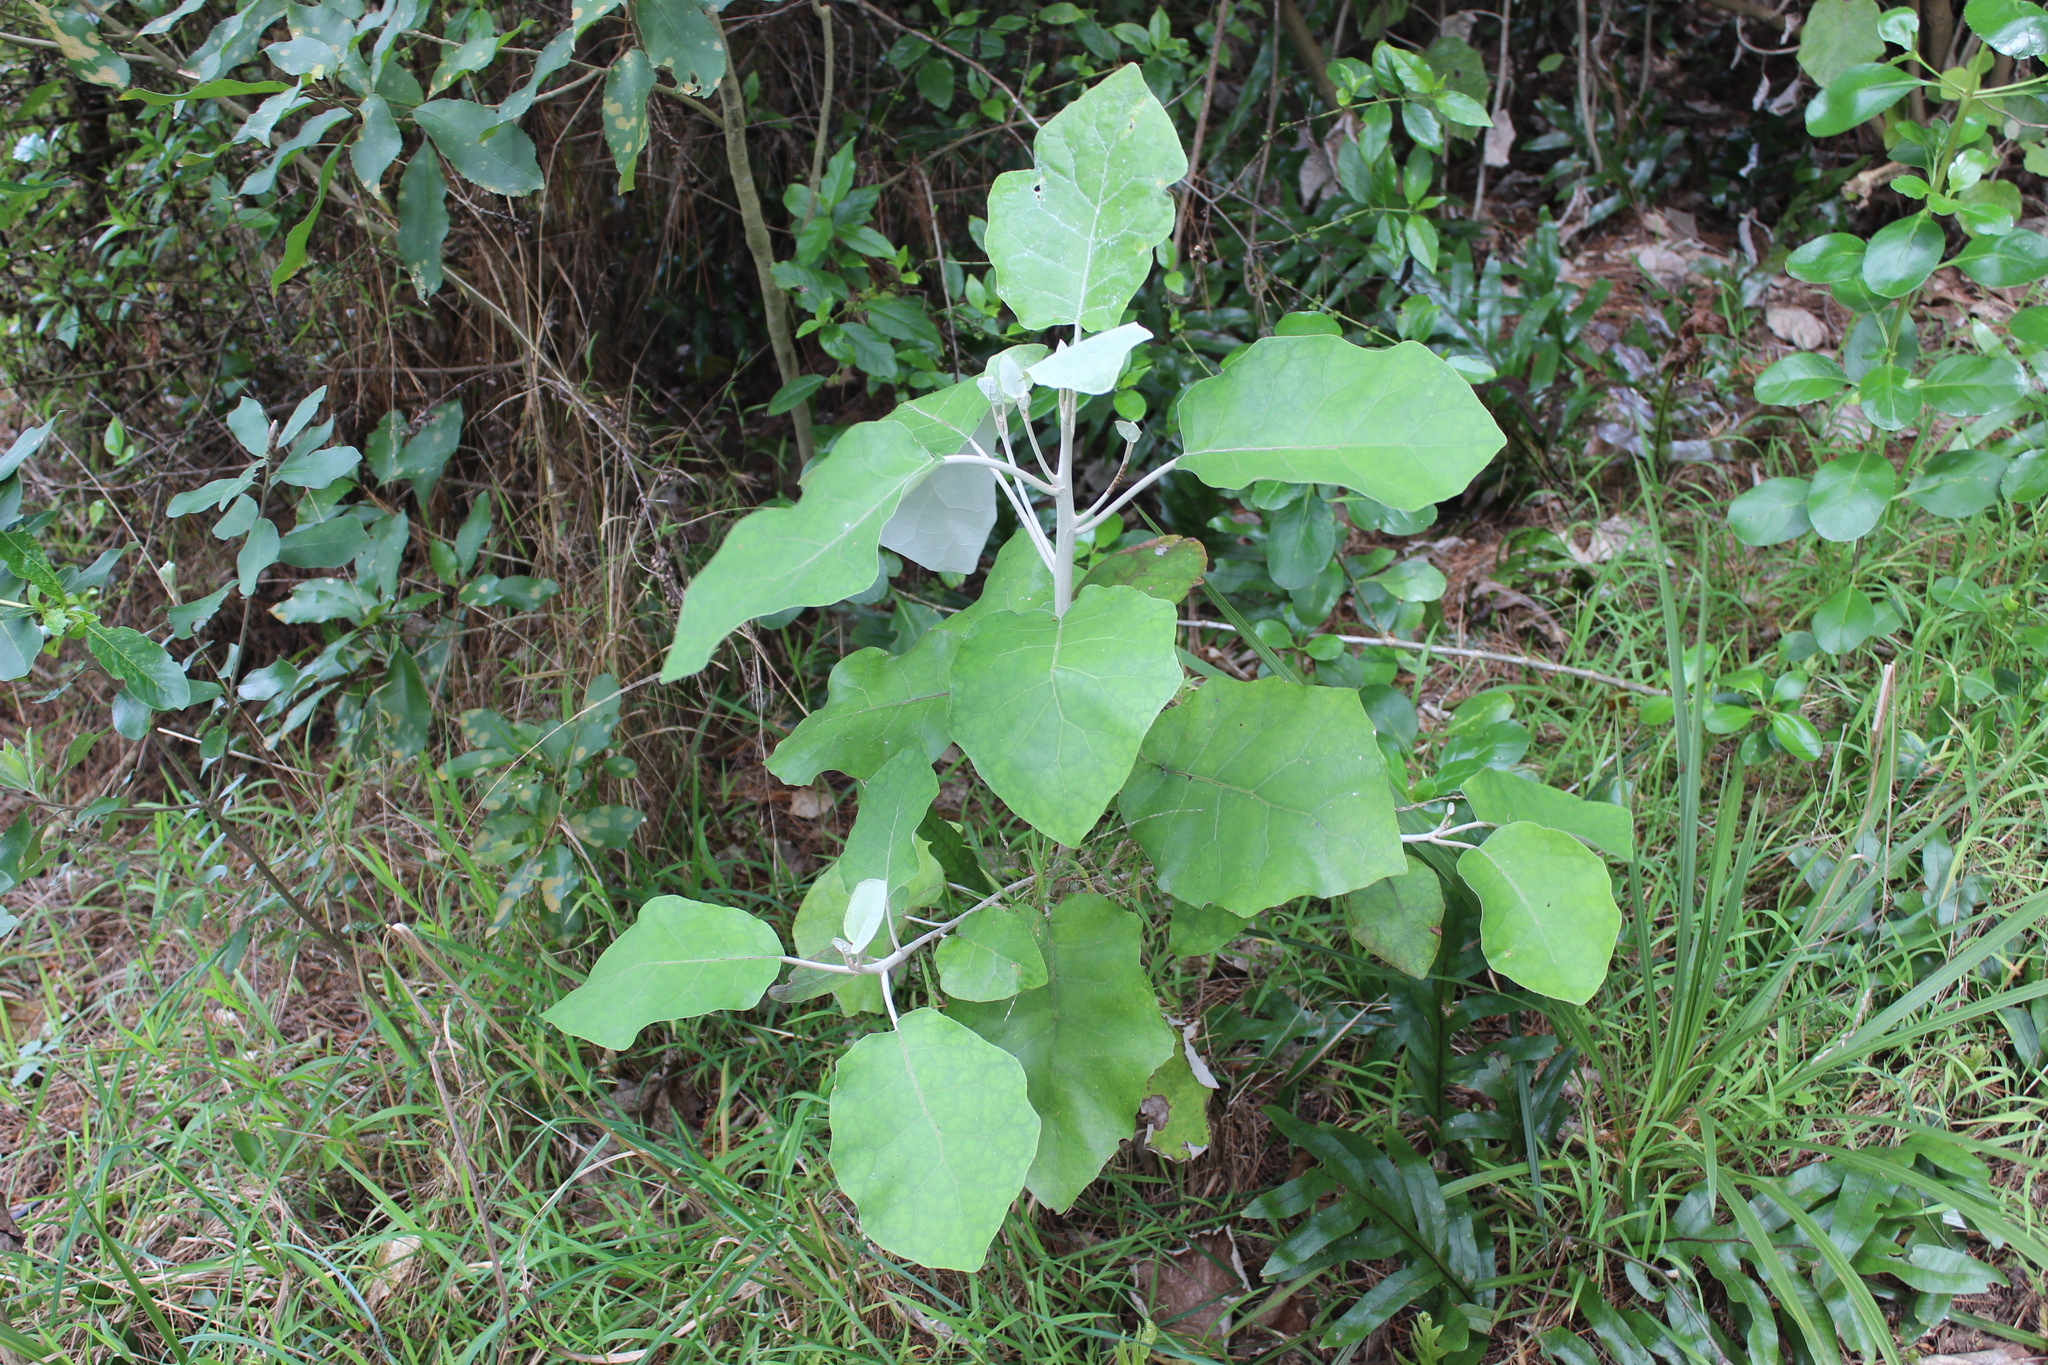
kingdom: Plantae
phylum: Tracheophyta
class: Magnoliopsida
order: Asterales
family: Asteraceae
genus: Brachyglottis
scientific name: Brachyglottis repanda
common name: Hedge ragwort
